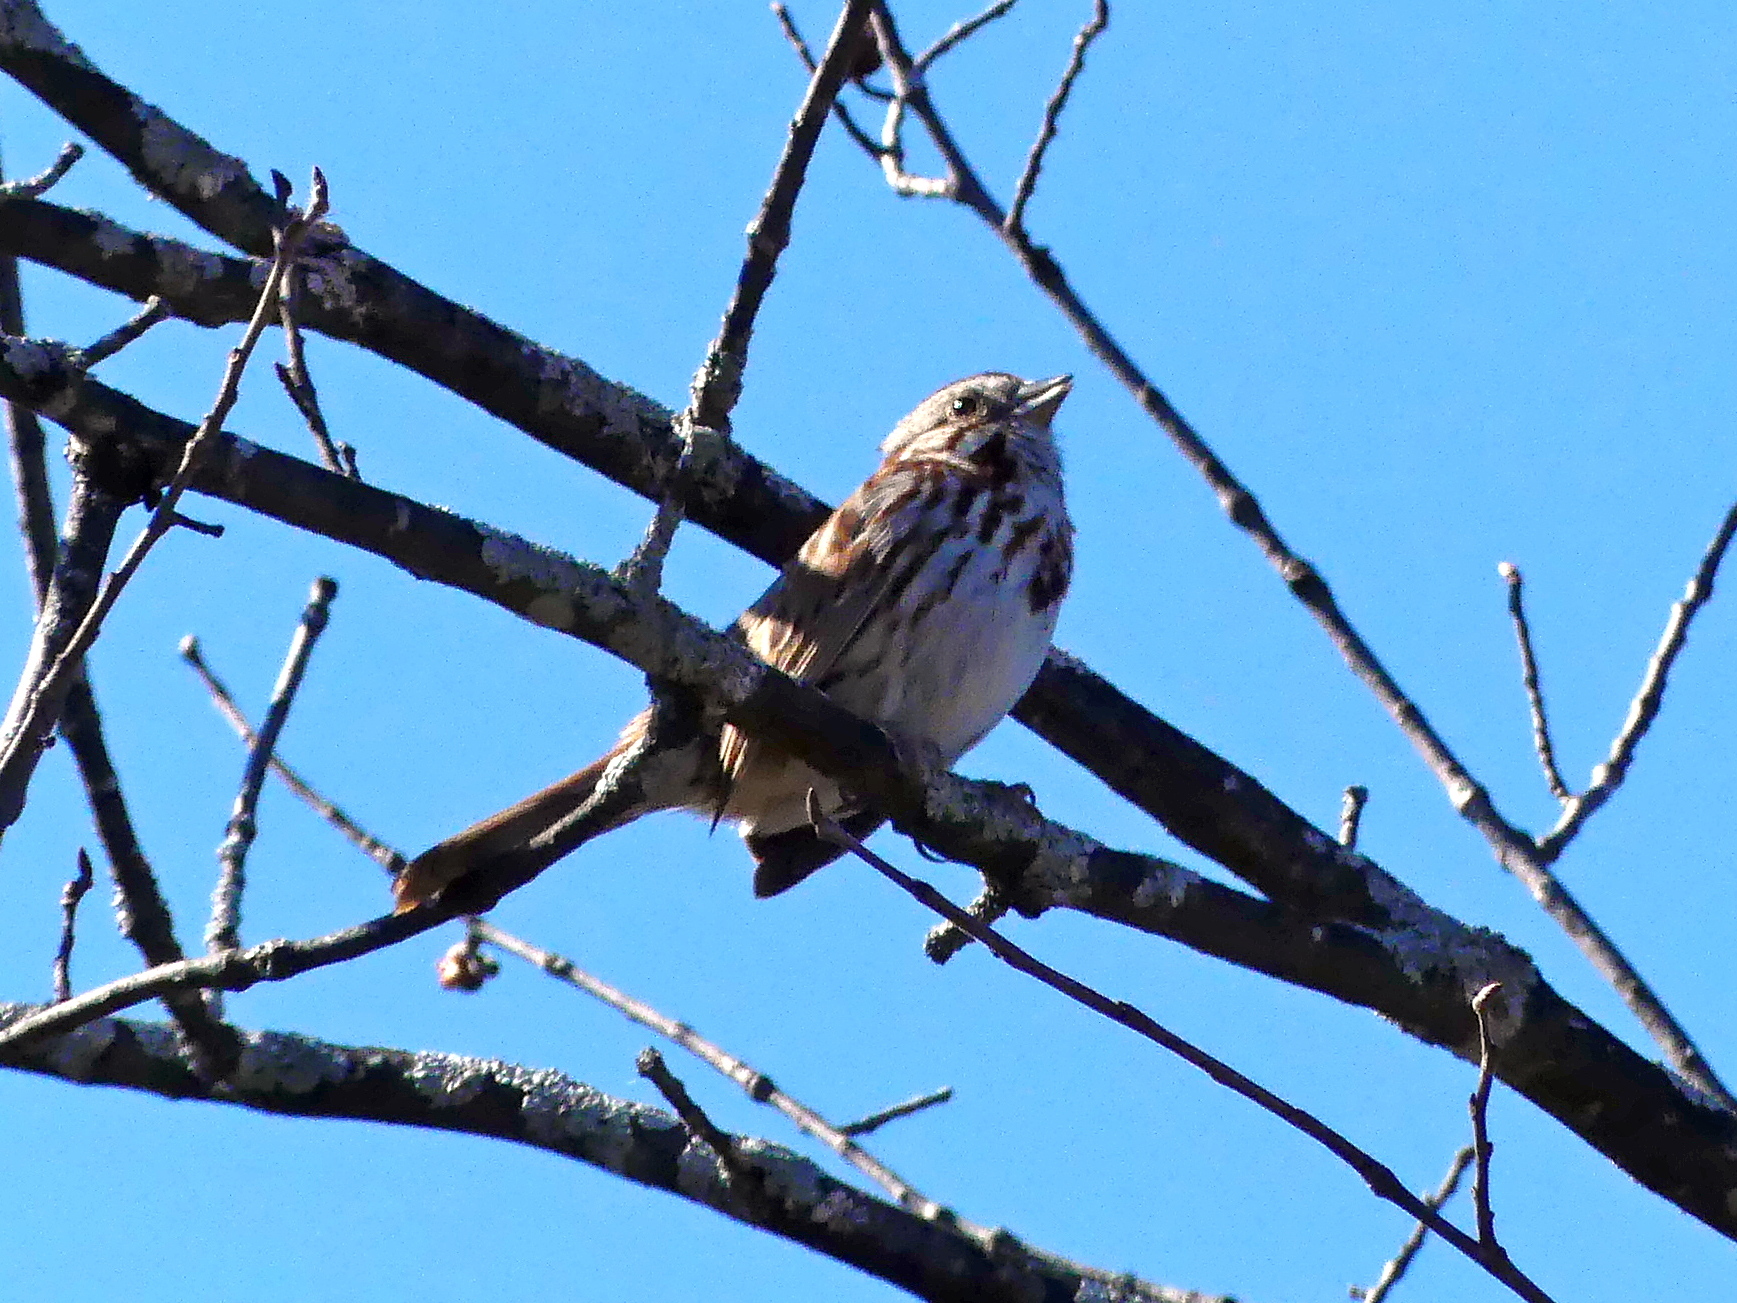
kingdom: Animalia
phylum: Chordata
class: Aves
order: Passeriformes
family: Passerellidae
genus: Melospiza
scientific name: Melospiza melodia
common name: Song sparrow
